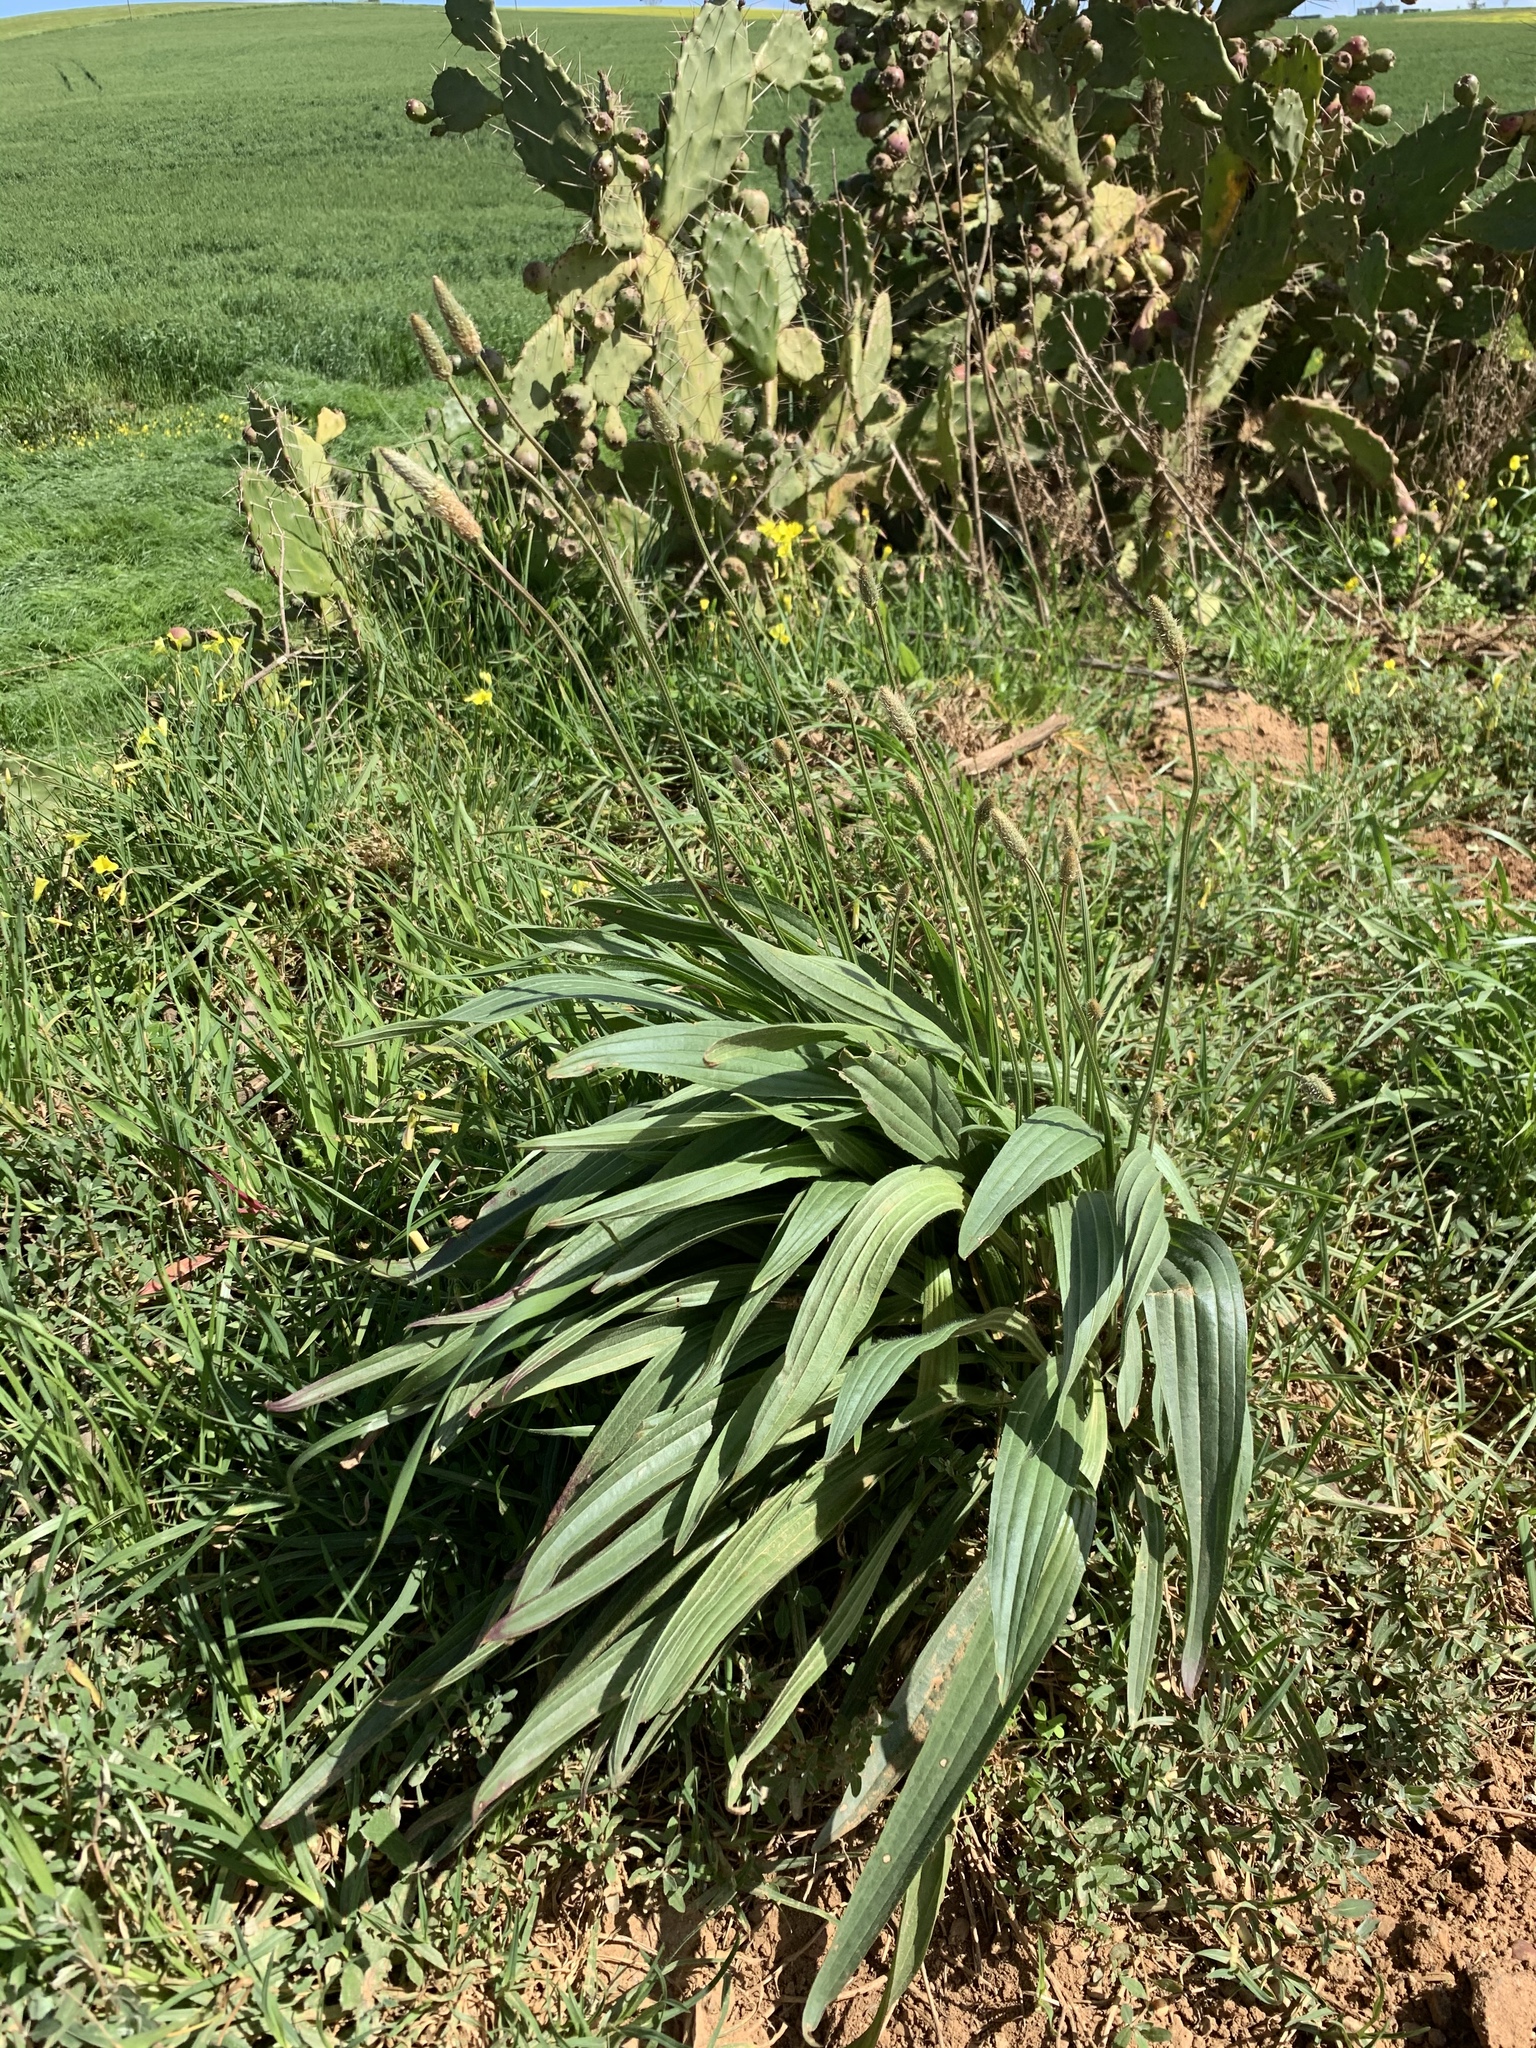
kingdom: Plantae
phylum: Tracheophyta
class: Magnoliopsida
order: Lamiales
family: Plantaginaceae
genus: Plantago
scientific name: Plantago lanceolata
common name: Ribwort plantain
